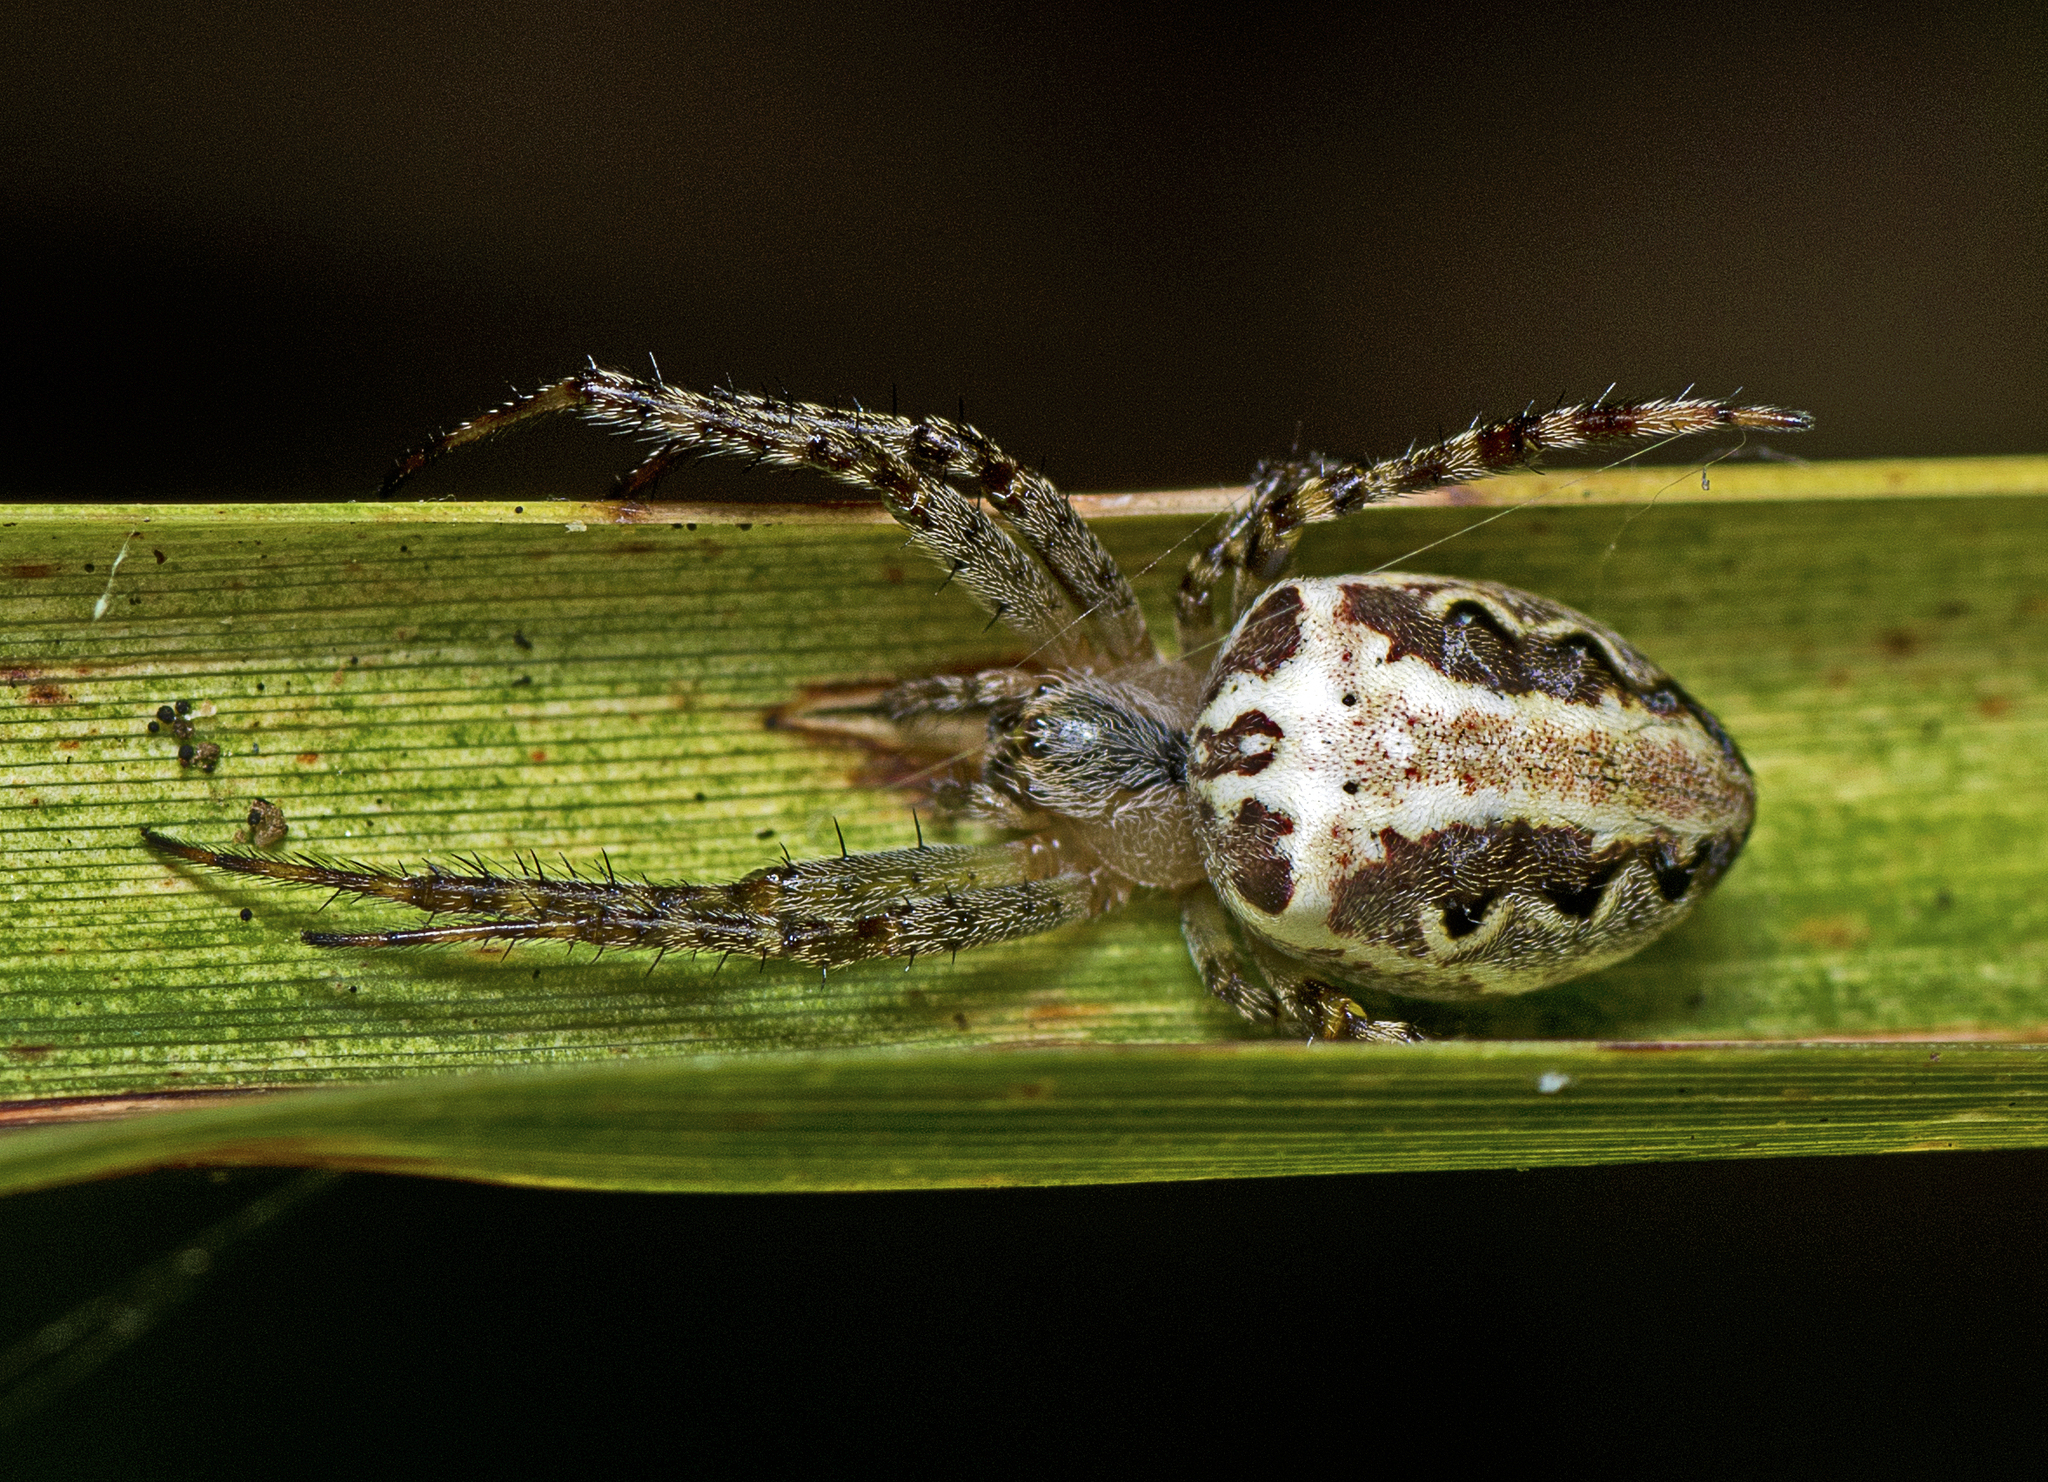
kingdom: Animalia
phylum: Arthropoda
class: Arachnida
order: Araneae
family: Araneidae
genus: Plebs
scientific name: Plebs eburnus
